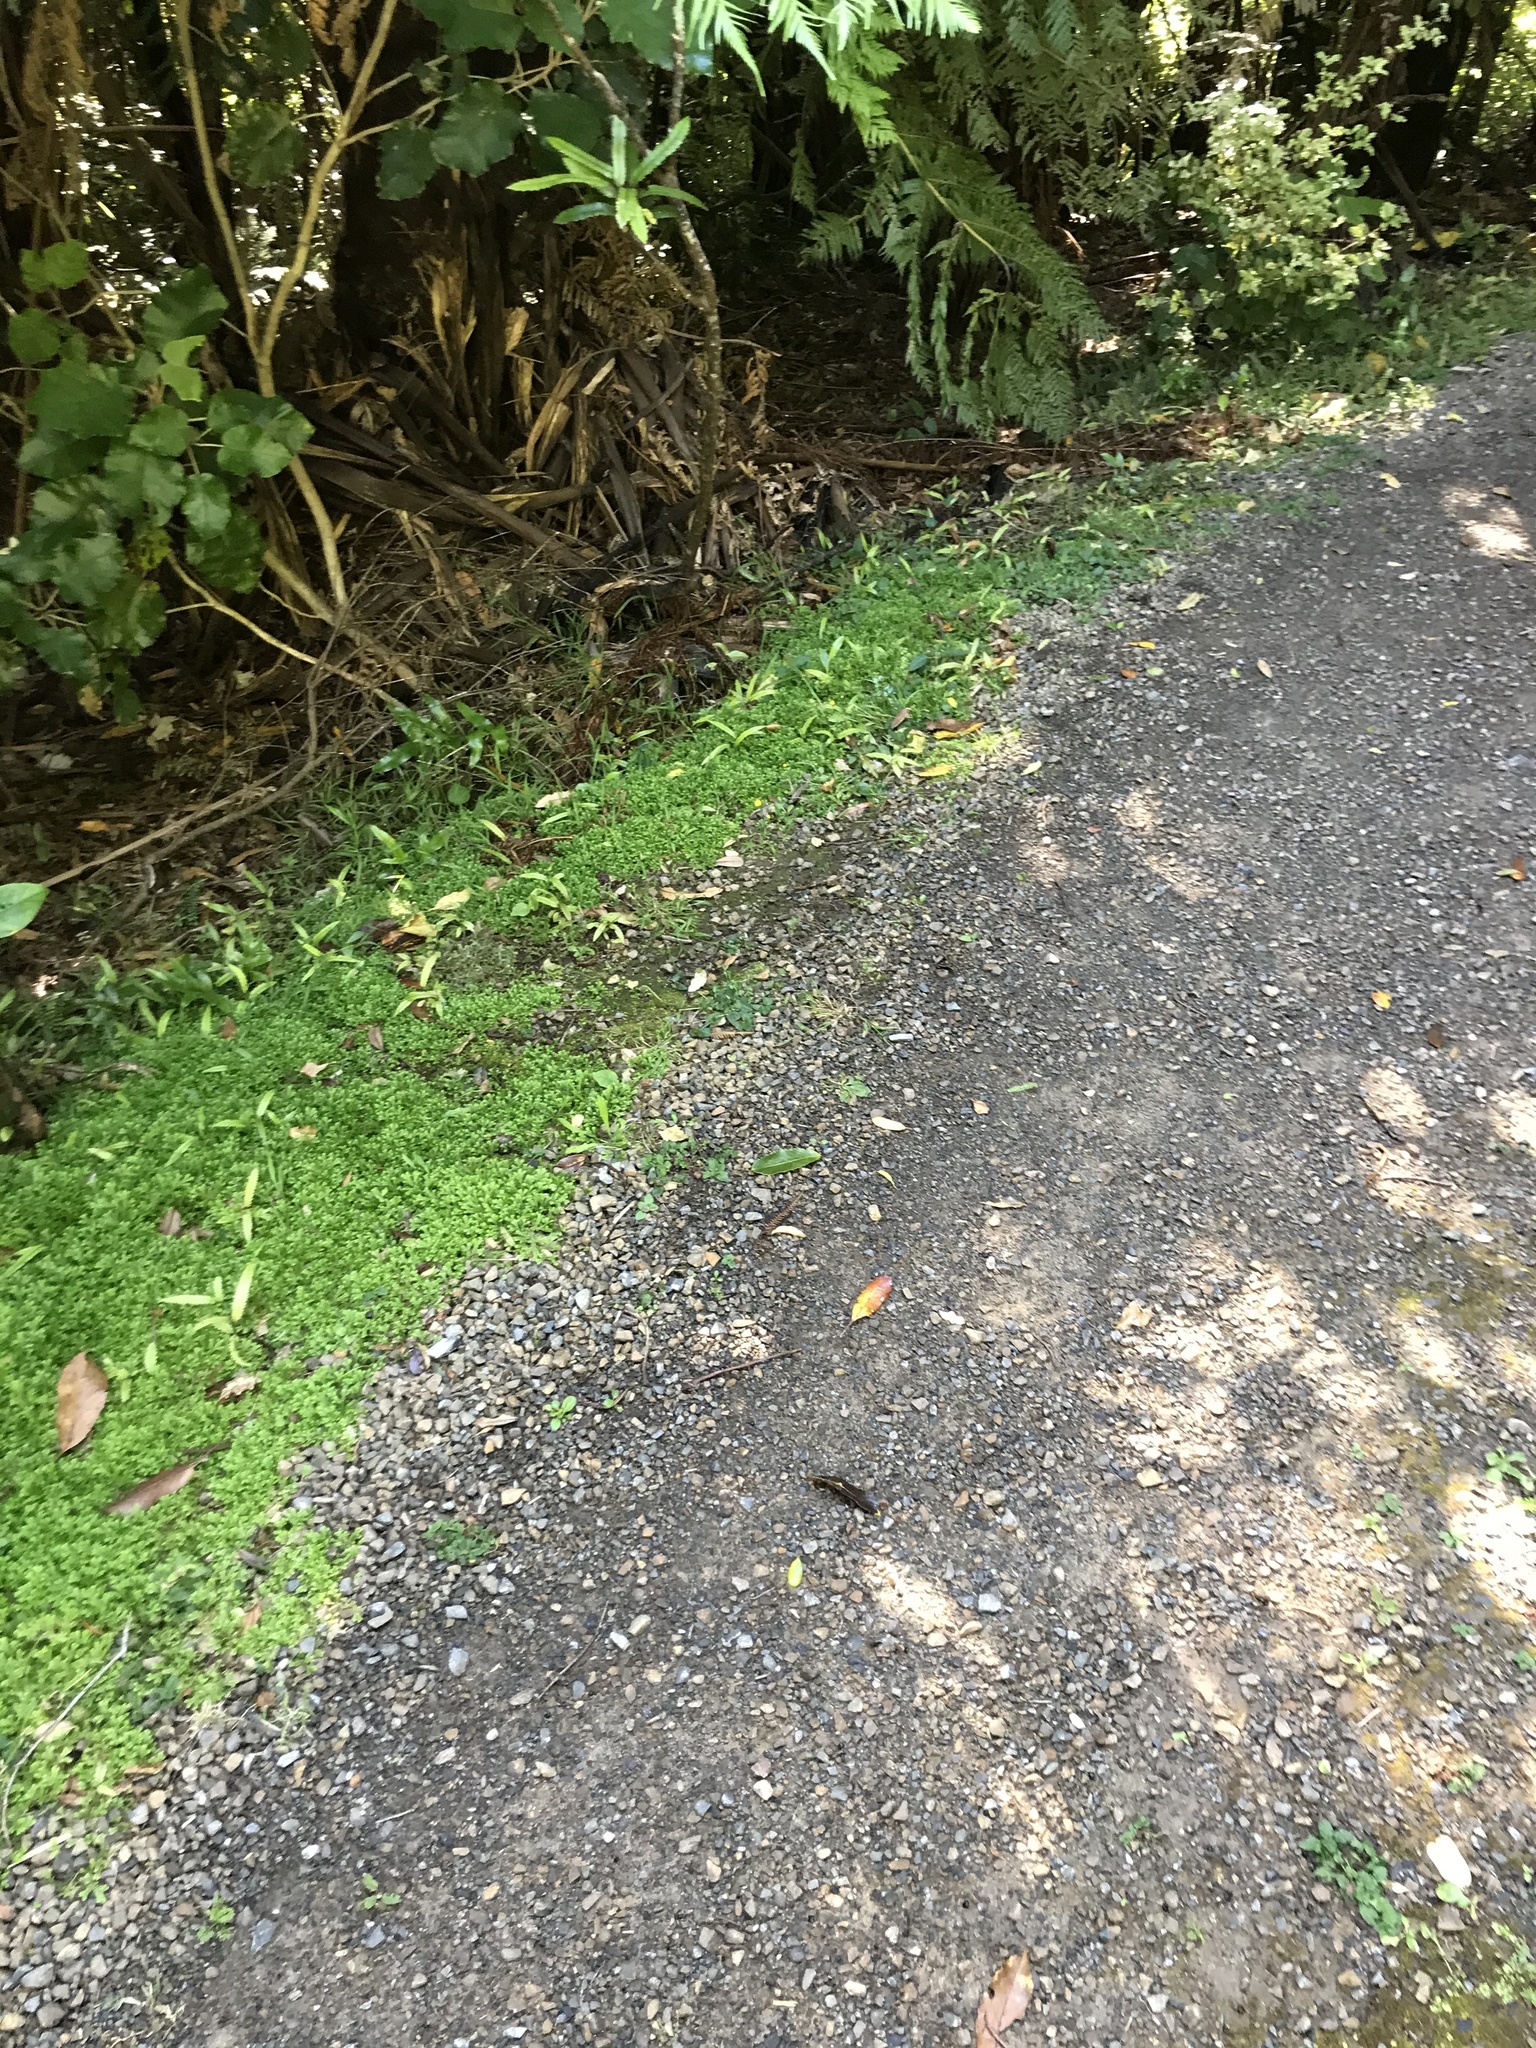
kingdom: Plantae
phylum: Tracheophyta
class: Lycopodiopsida
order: Selaginellales
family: Selaginellaceae
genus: Selaginella
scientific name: Selaginella kraussiana
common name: Krauss' spikemoss
